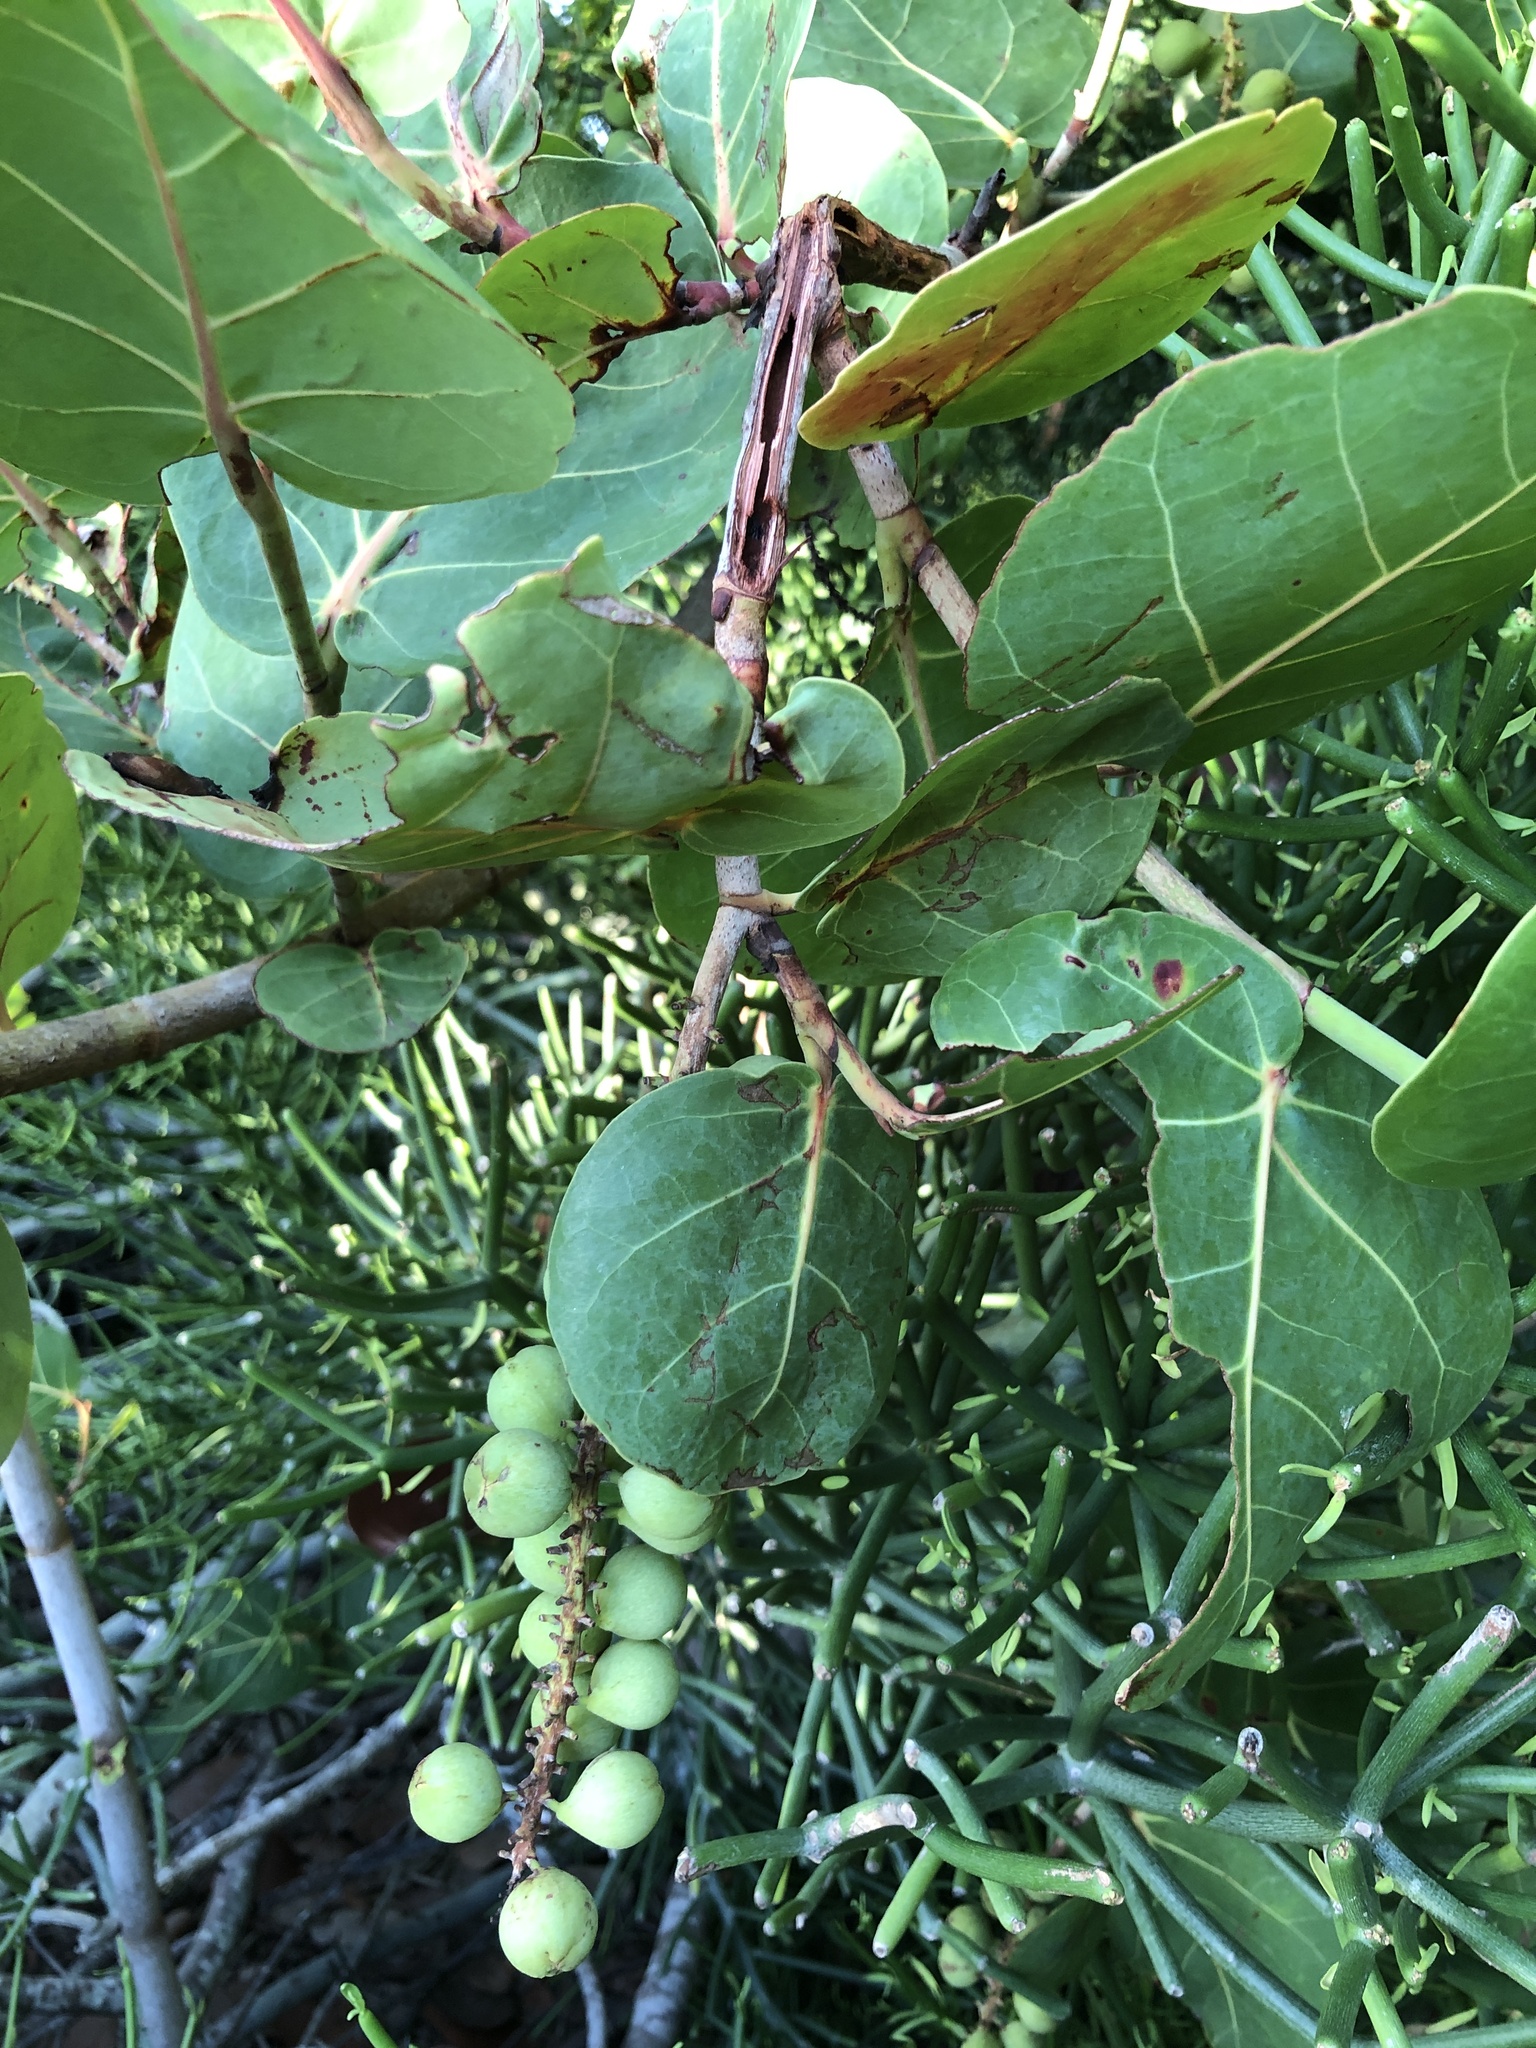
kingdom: Plantae
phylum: Tracheophyta
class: Magnoliopsida
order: Caryophyllales
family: Polygonaceae
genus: Coccoloba
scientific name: Coccoloba uvifera
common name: Seagrape
